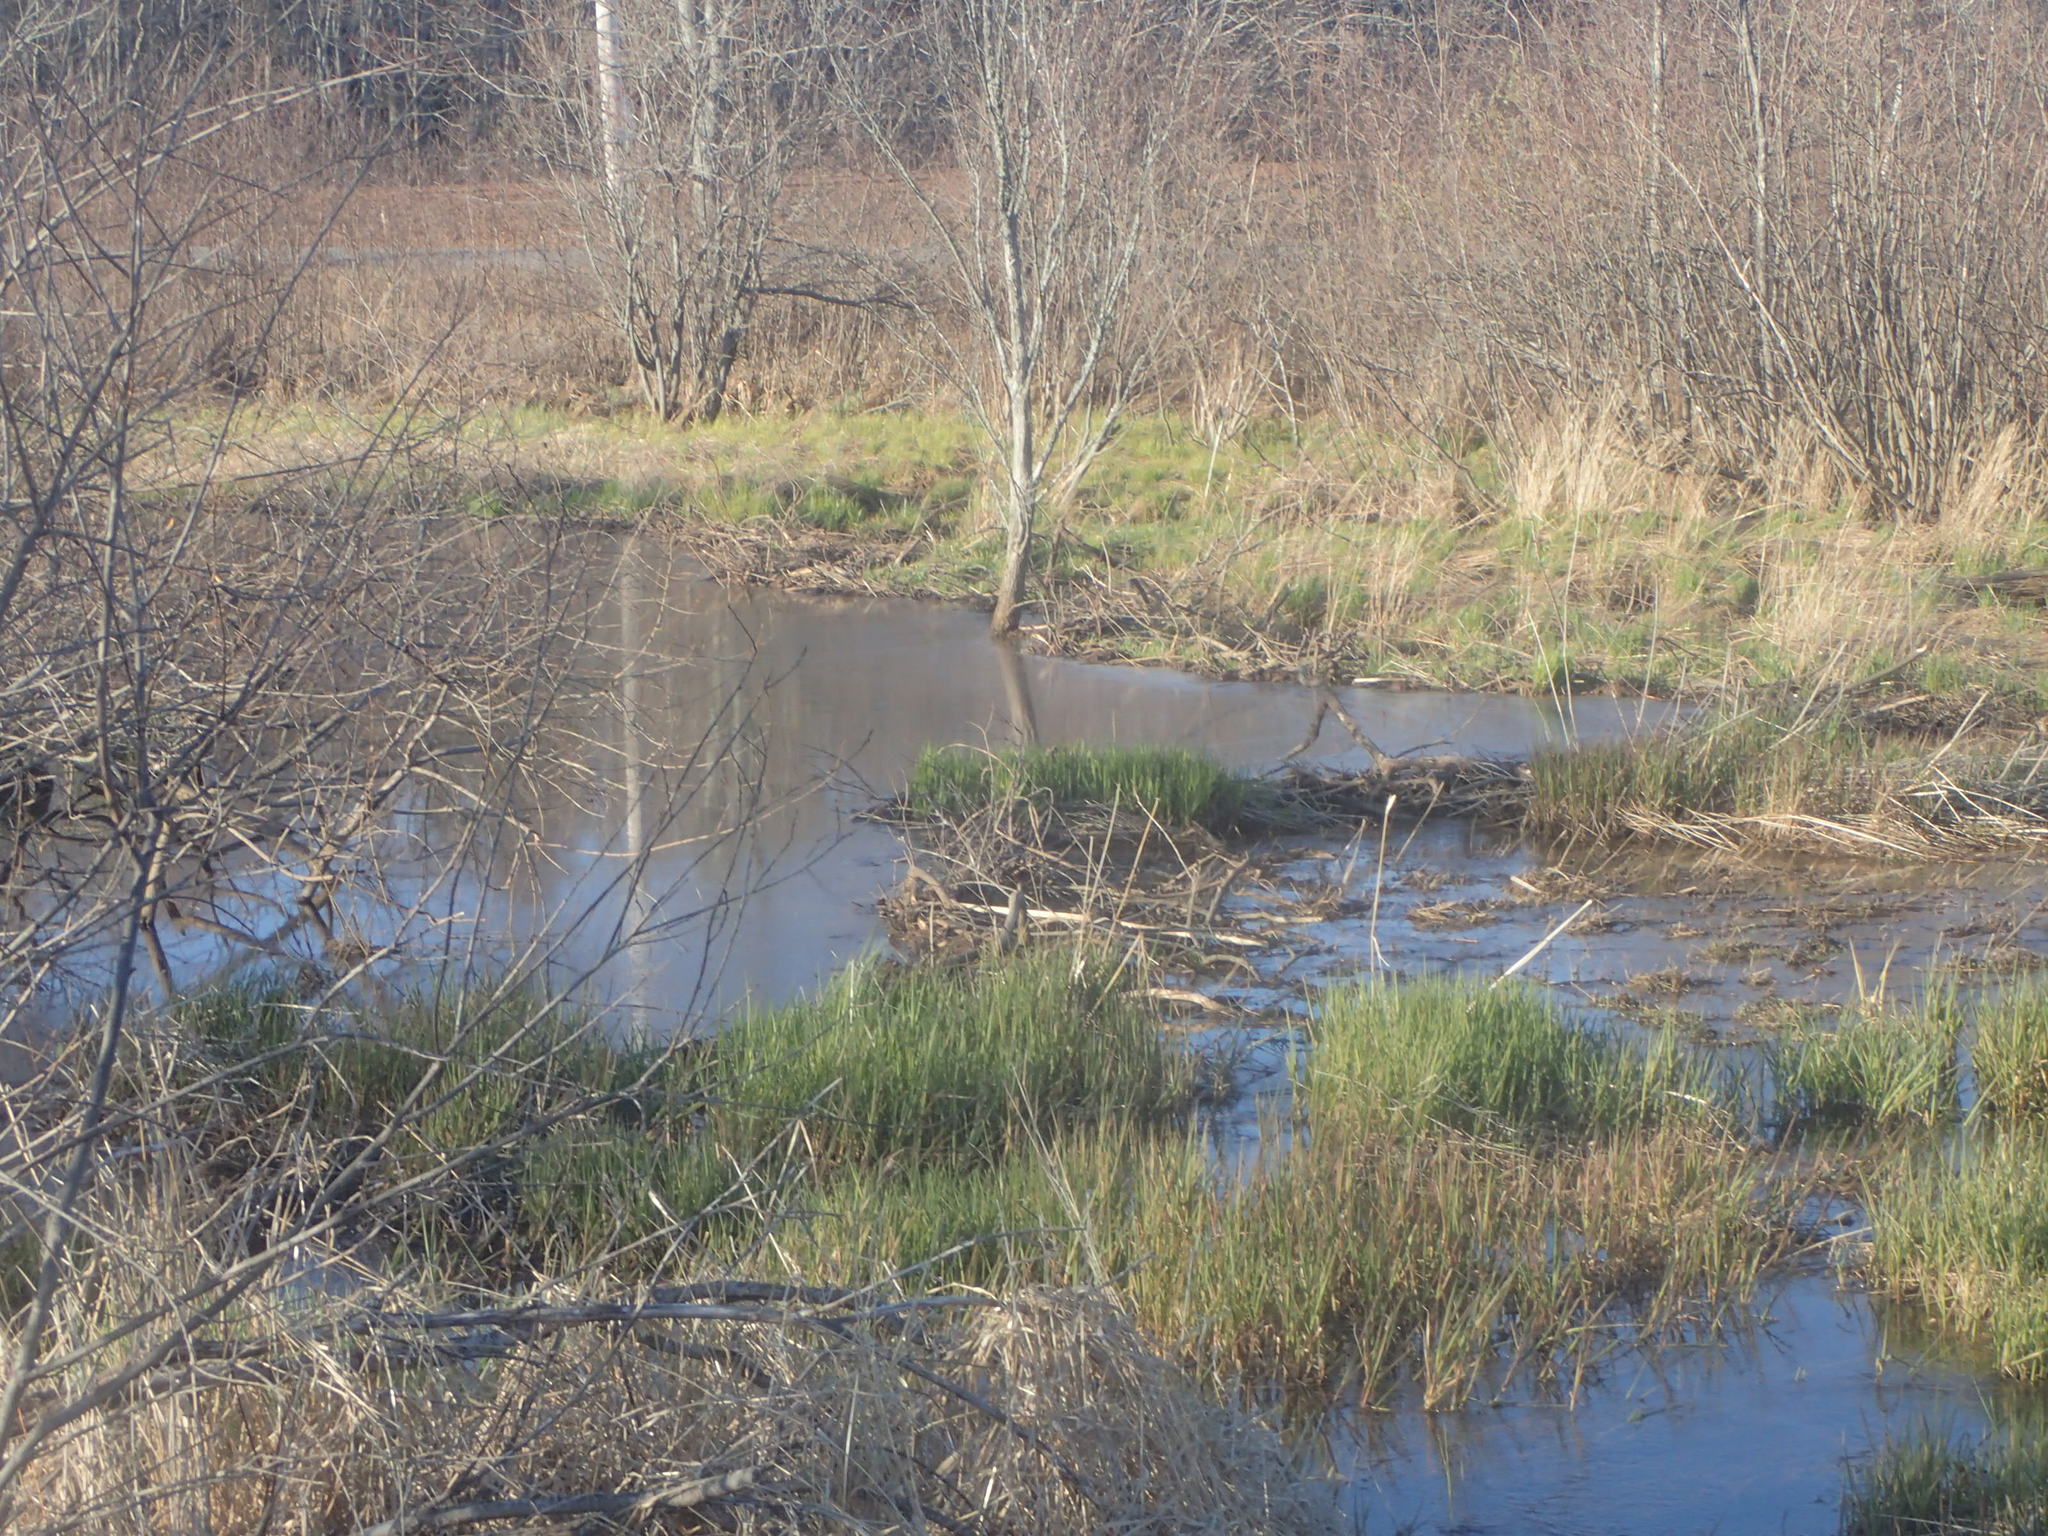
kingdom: Animalia
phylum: Chordata
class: Mammalia
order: Rodentia
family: Castoridae
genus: Castor
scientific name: Castor canadensis
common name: American beaver
